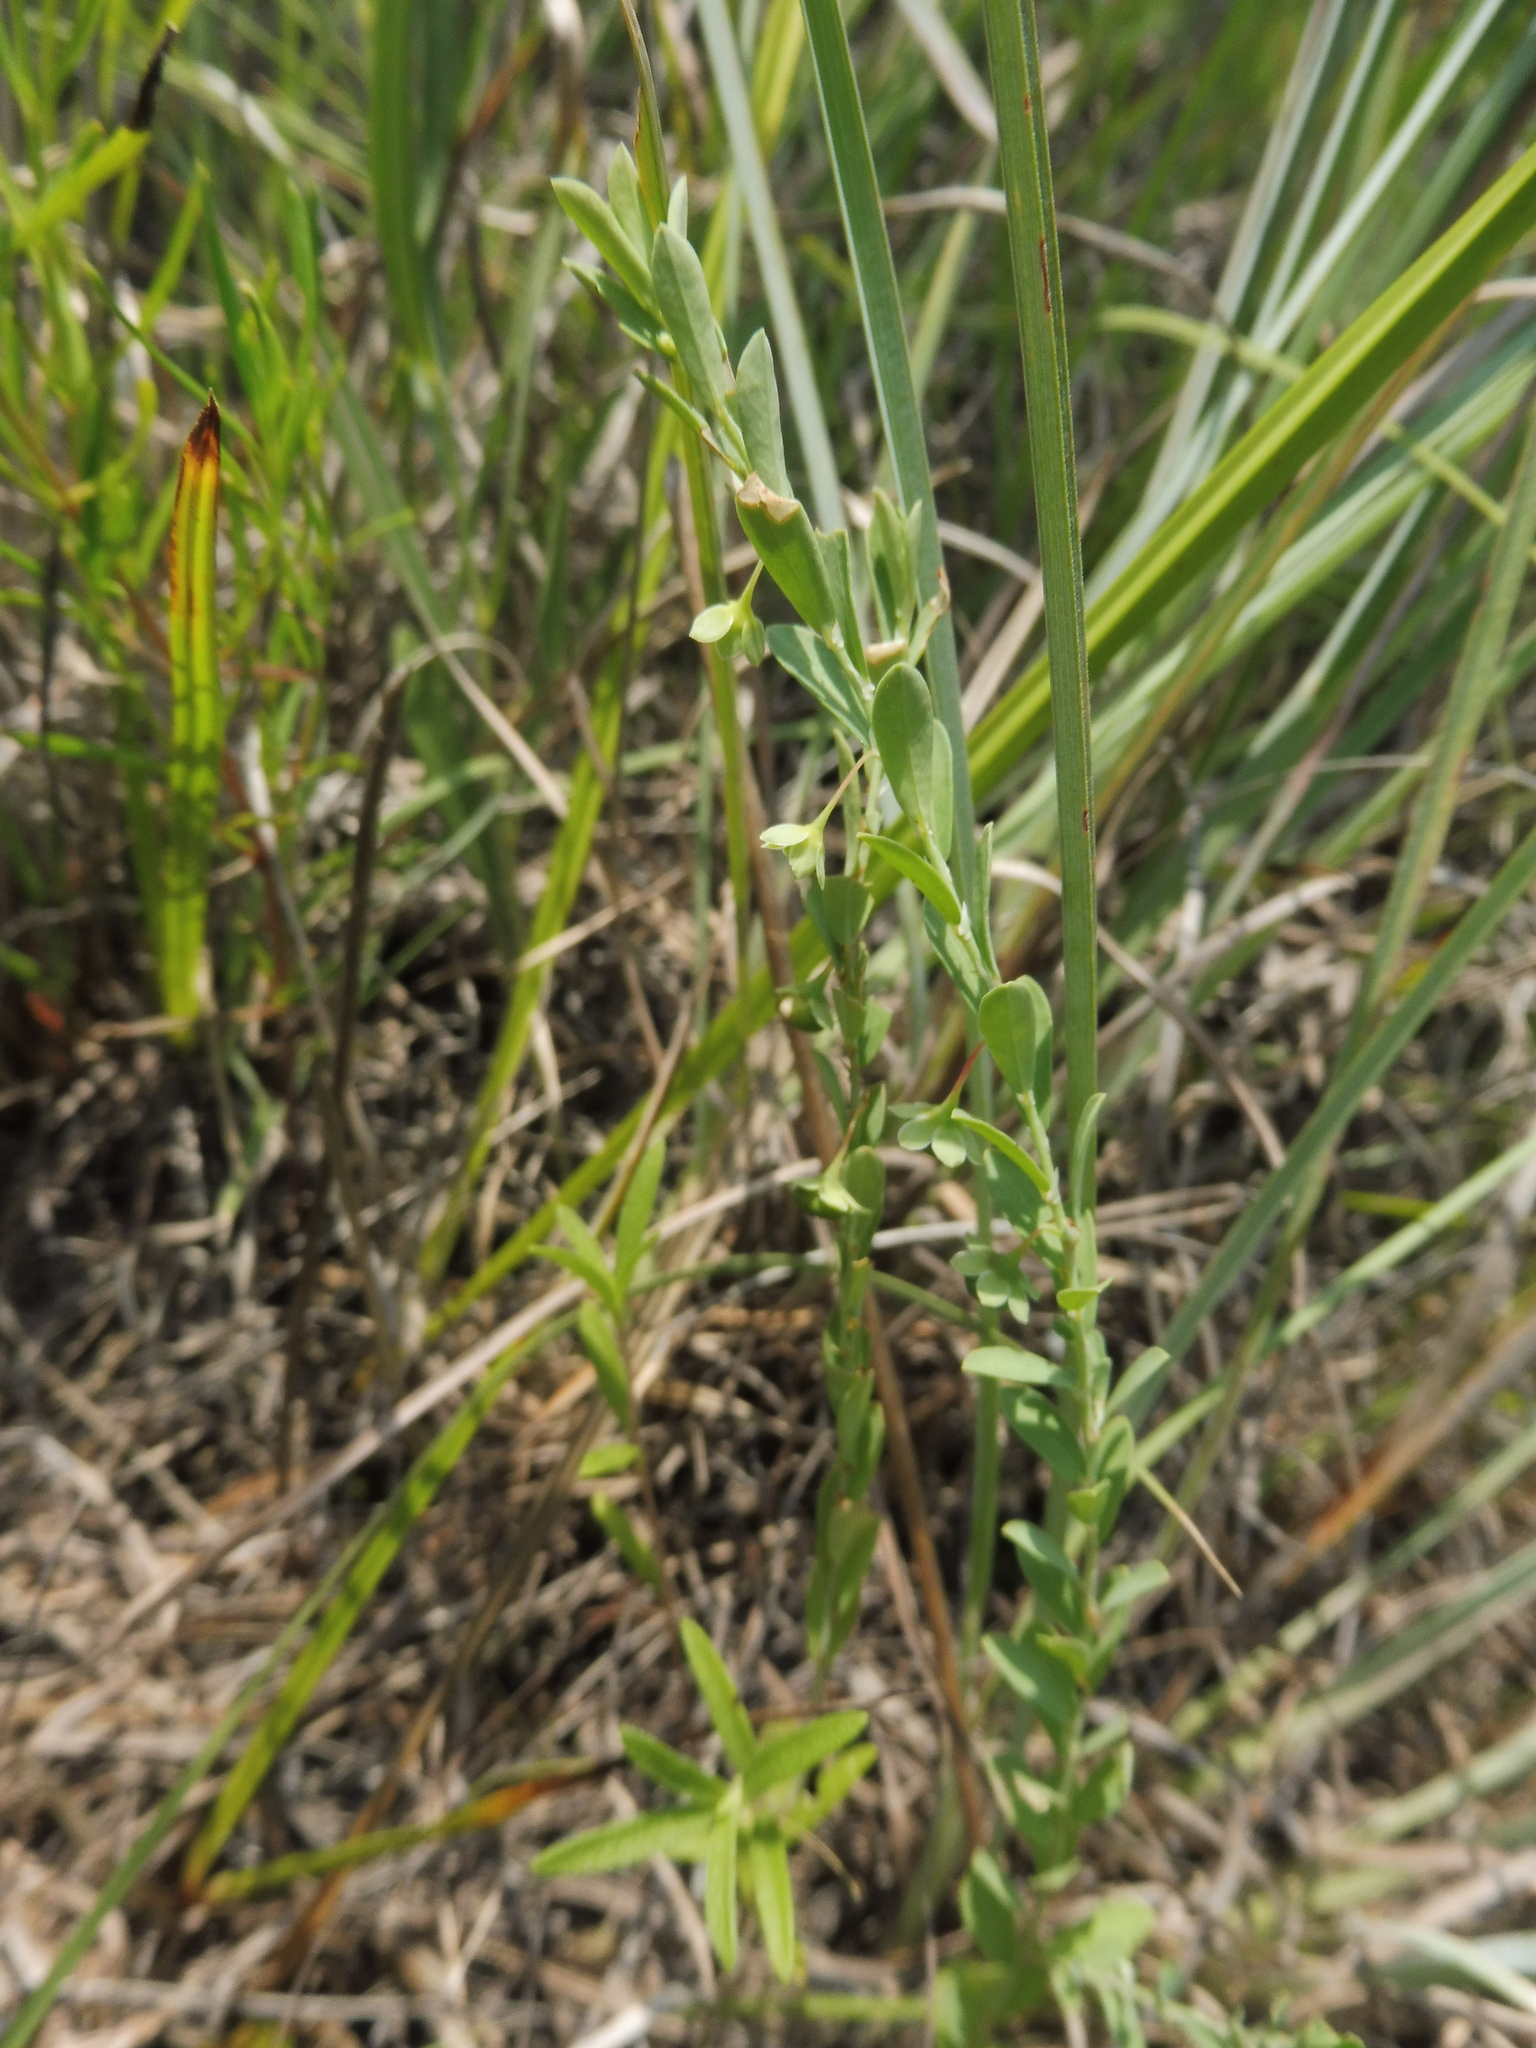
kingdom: Plantae
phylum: Tracheophyta
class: Magnoliopsida
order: Malpighiales
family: Phyllanthaceae
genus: Phyllanthus
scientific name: Phyllanthus polygonoides
